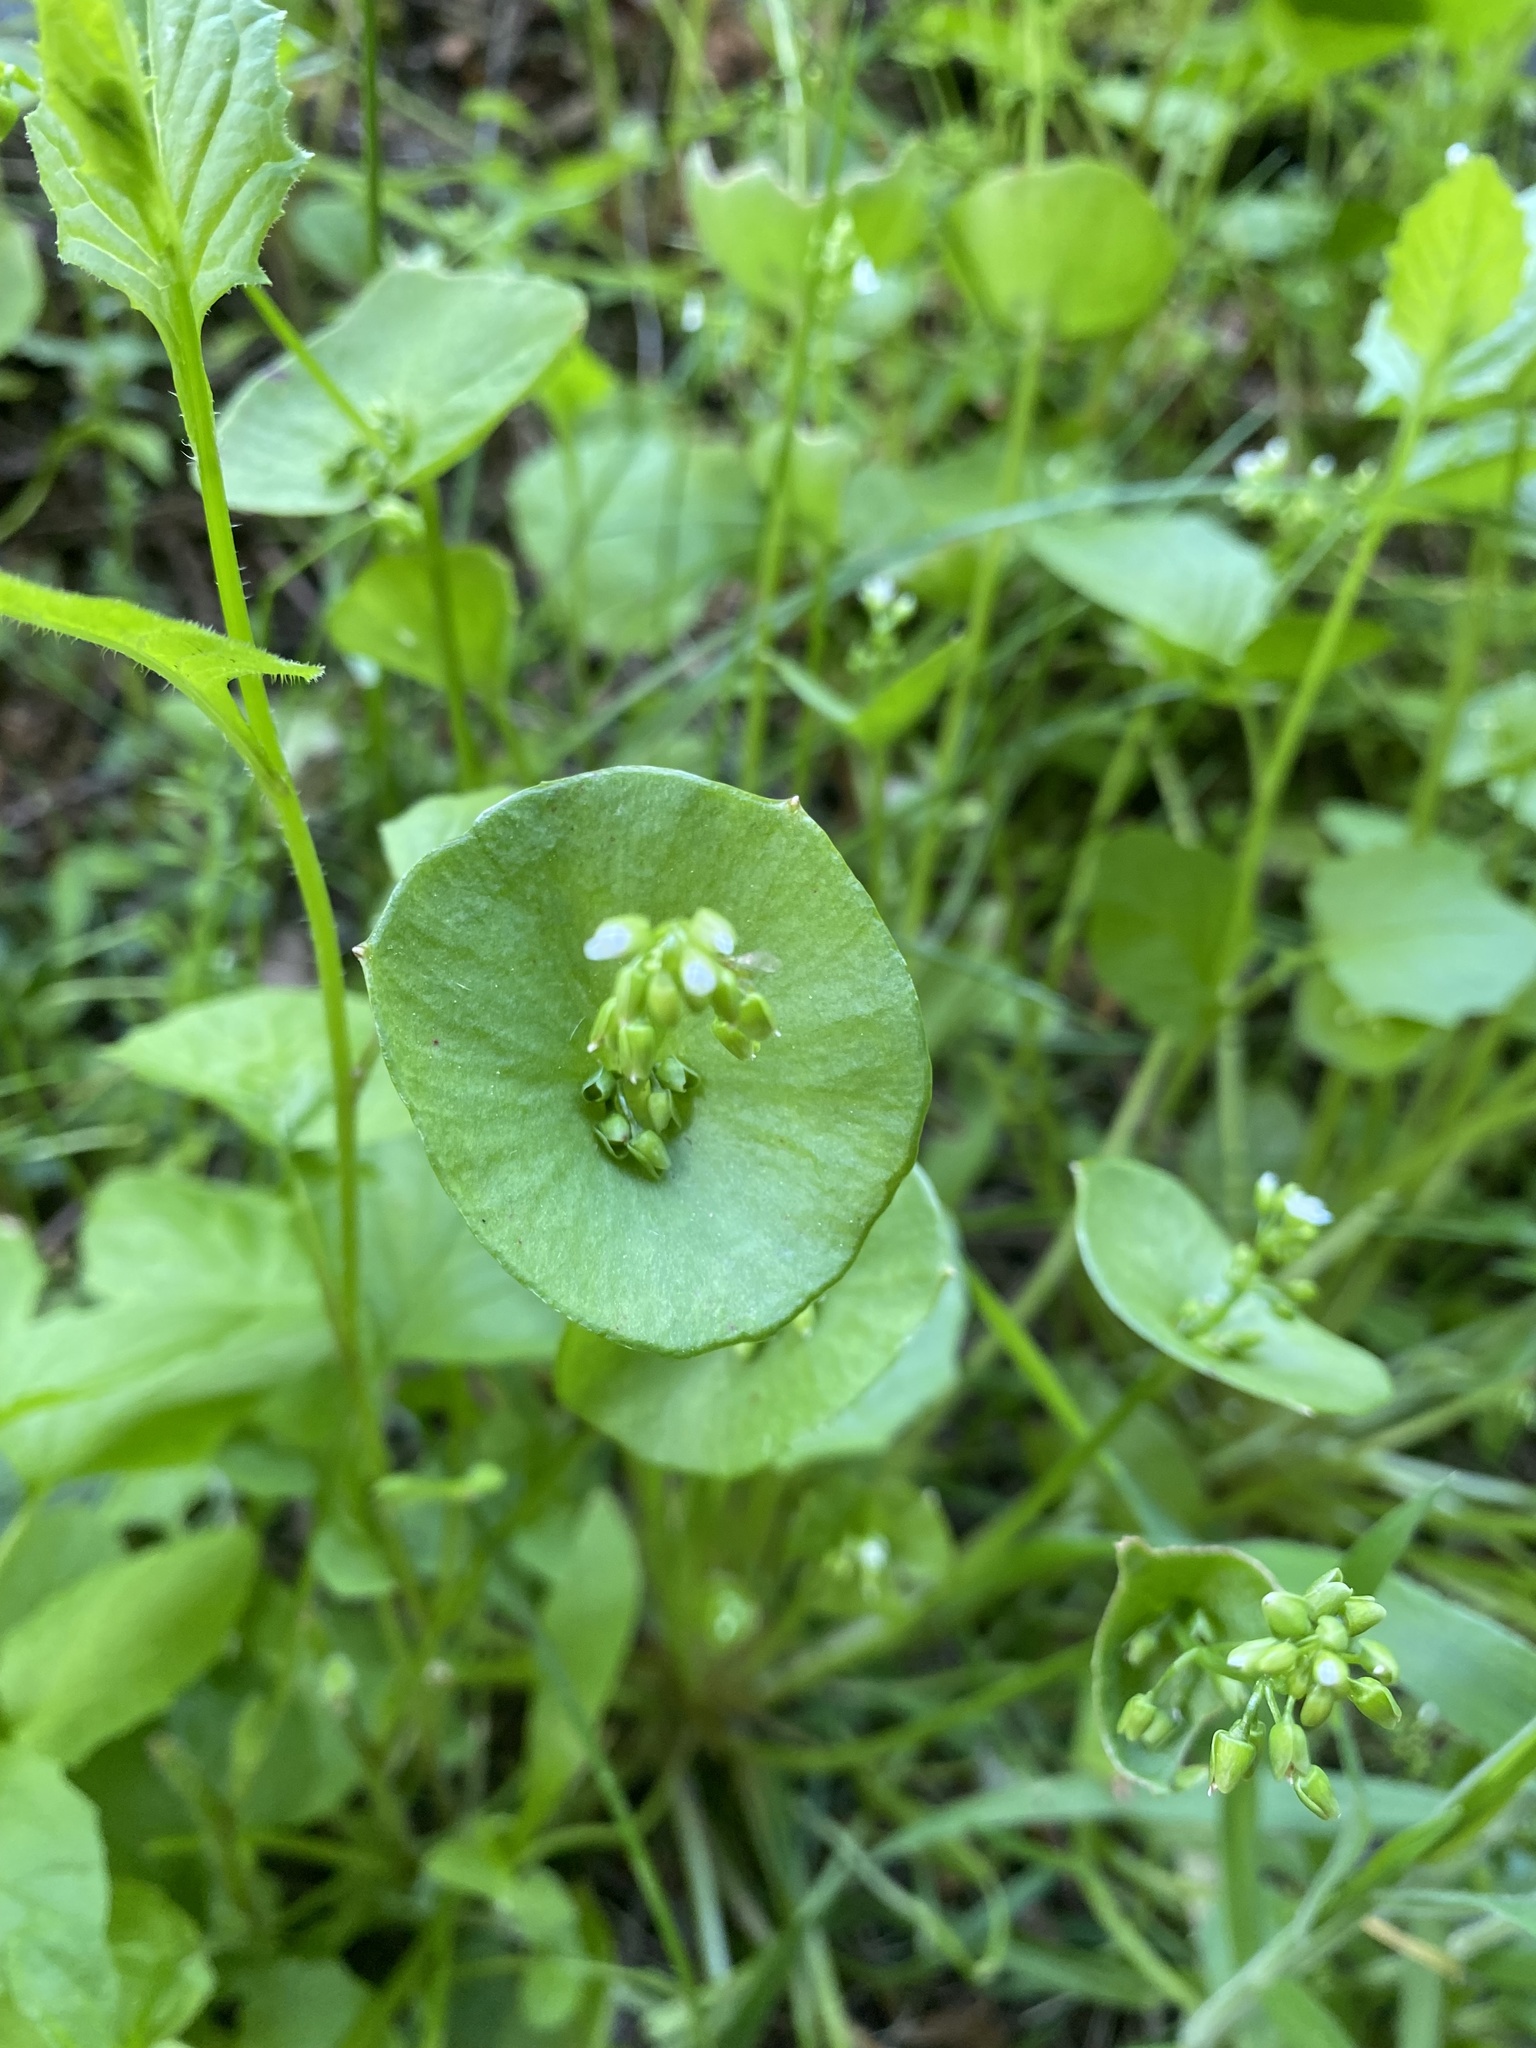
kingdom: Plantae
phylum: Tracheophyta
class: Magnoliopsida
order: Caryophyllales
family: Montiaceae
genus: Claytonia
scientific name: Claytonia perfoliata
